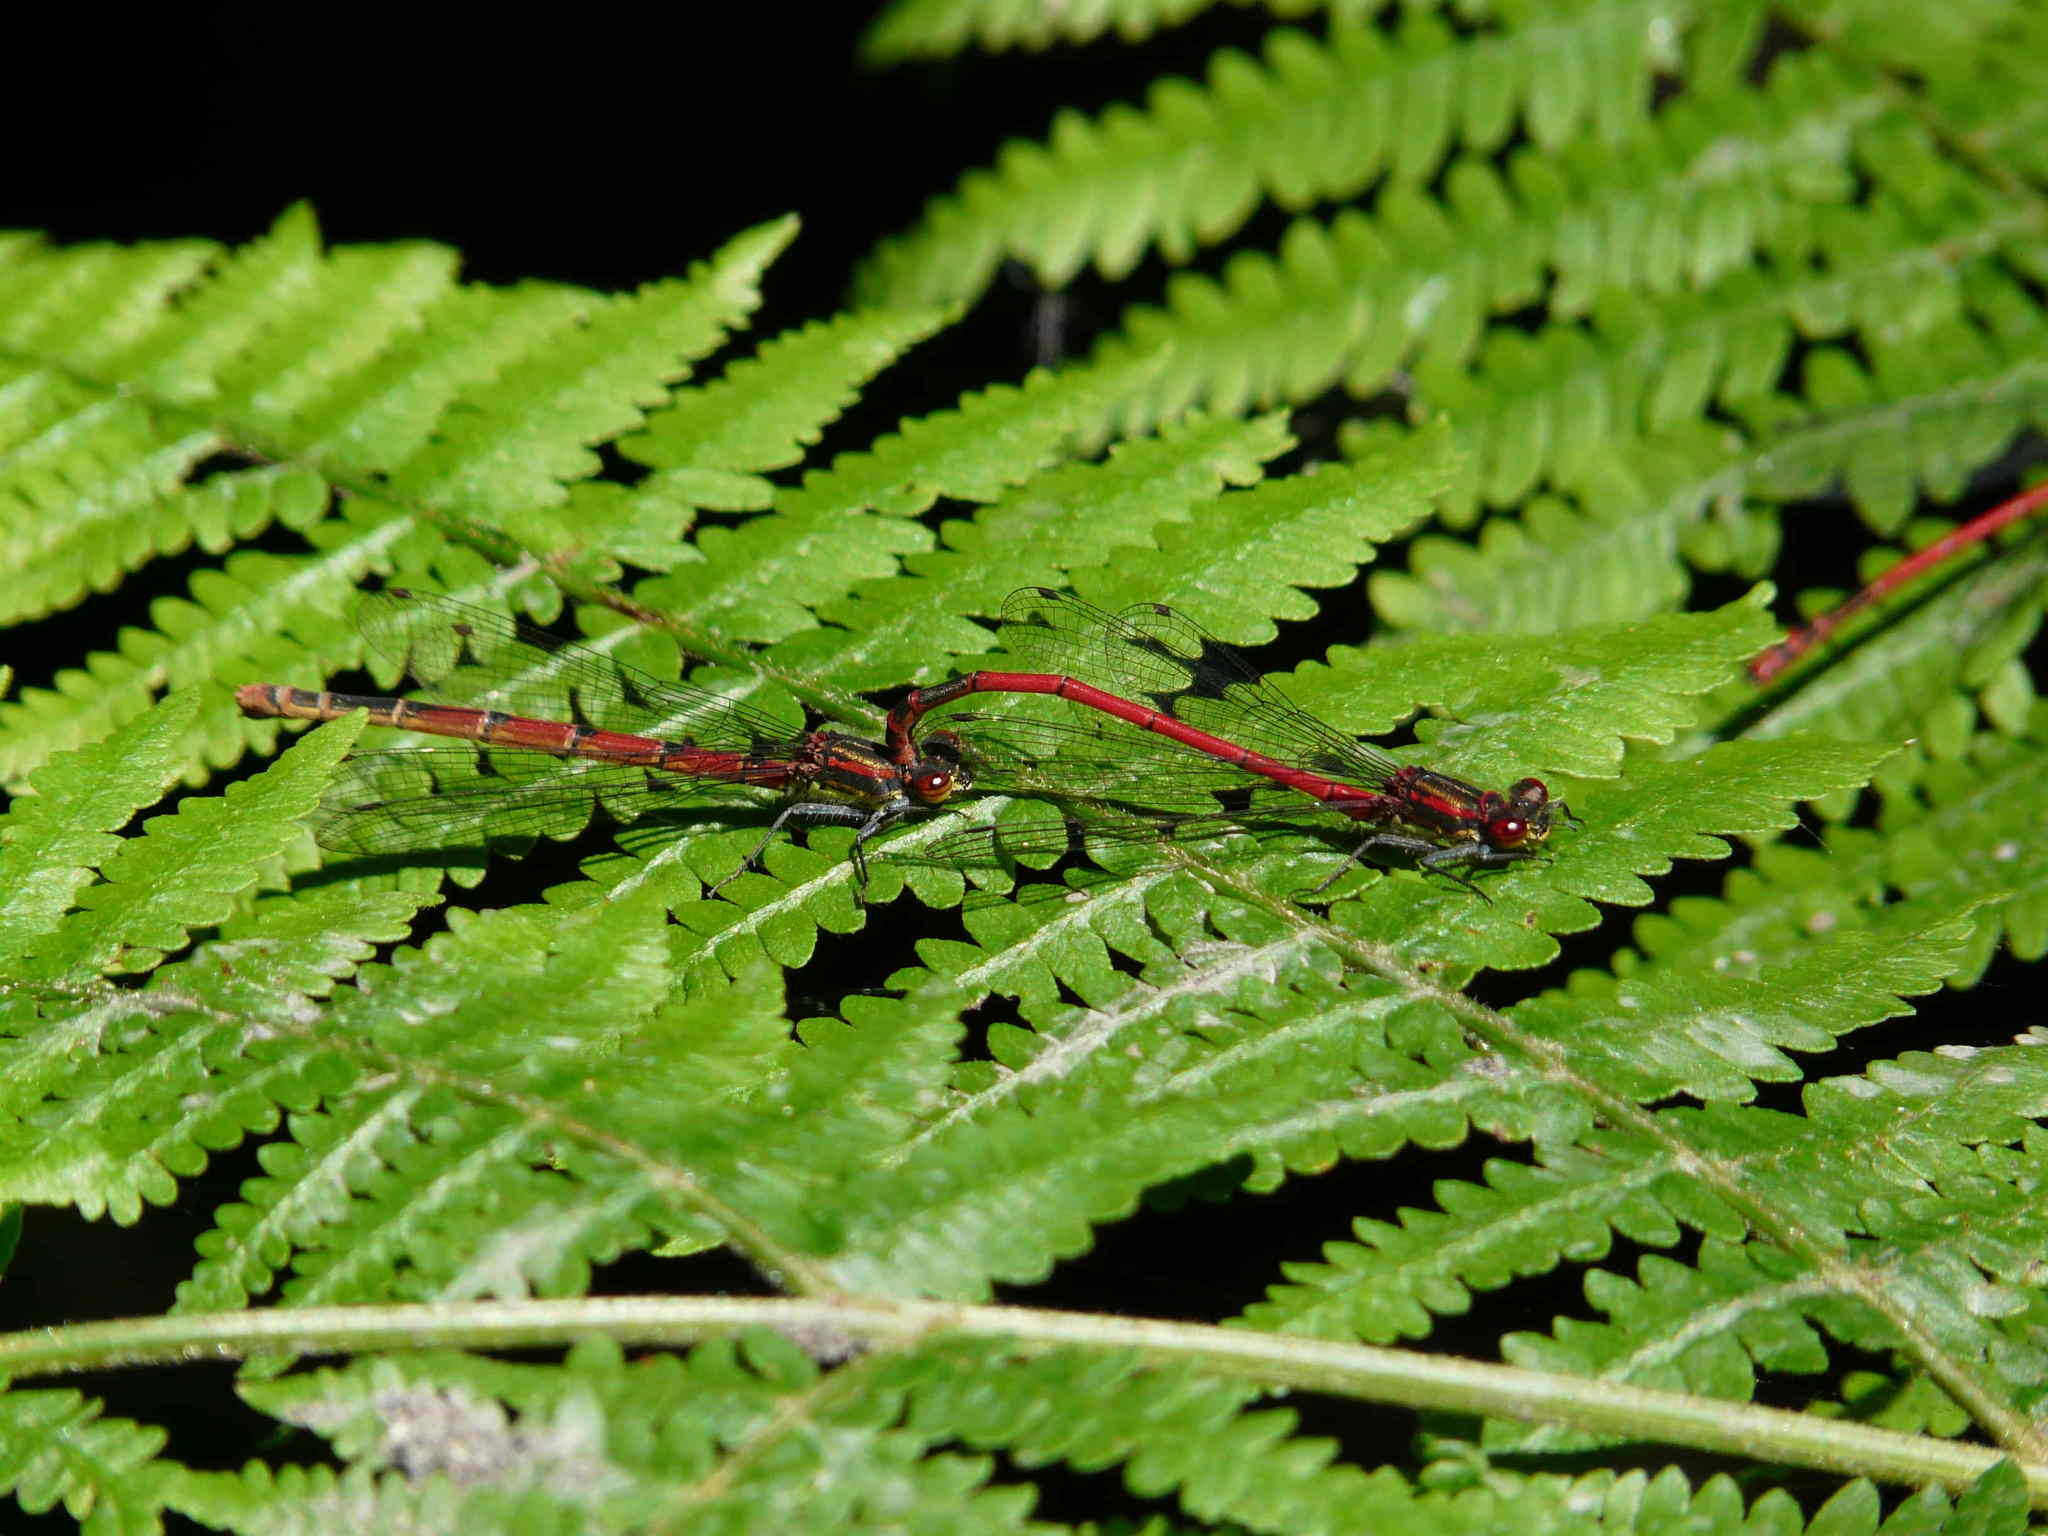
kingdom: Animalia
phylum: Arthropoda
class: Insecta
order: Odonata
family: Coenagrionidae
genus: Pyrrhosoma
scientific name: Pyrrhosoma nymphula
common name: Large red damsel
